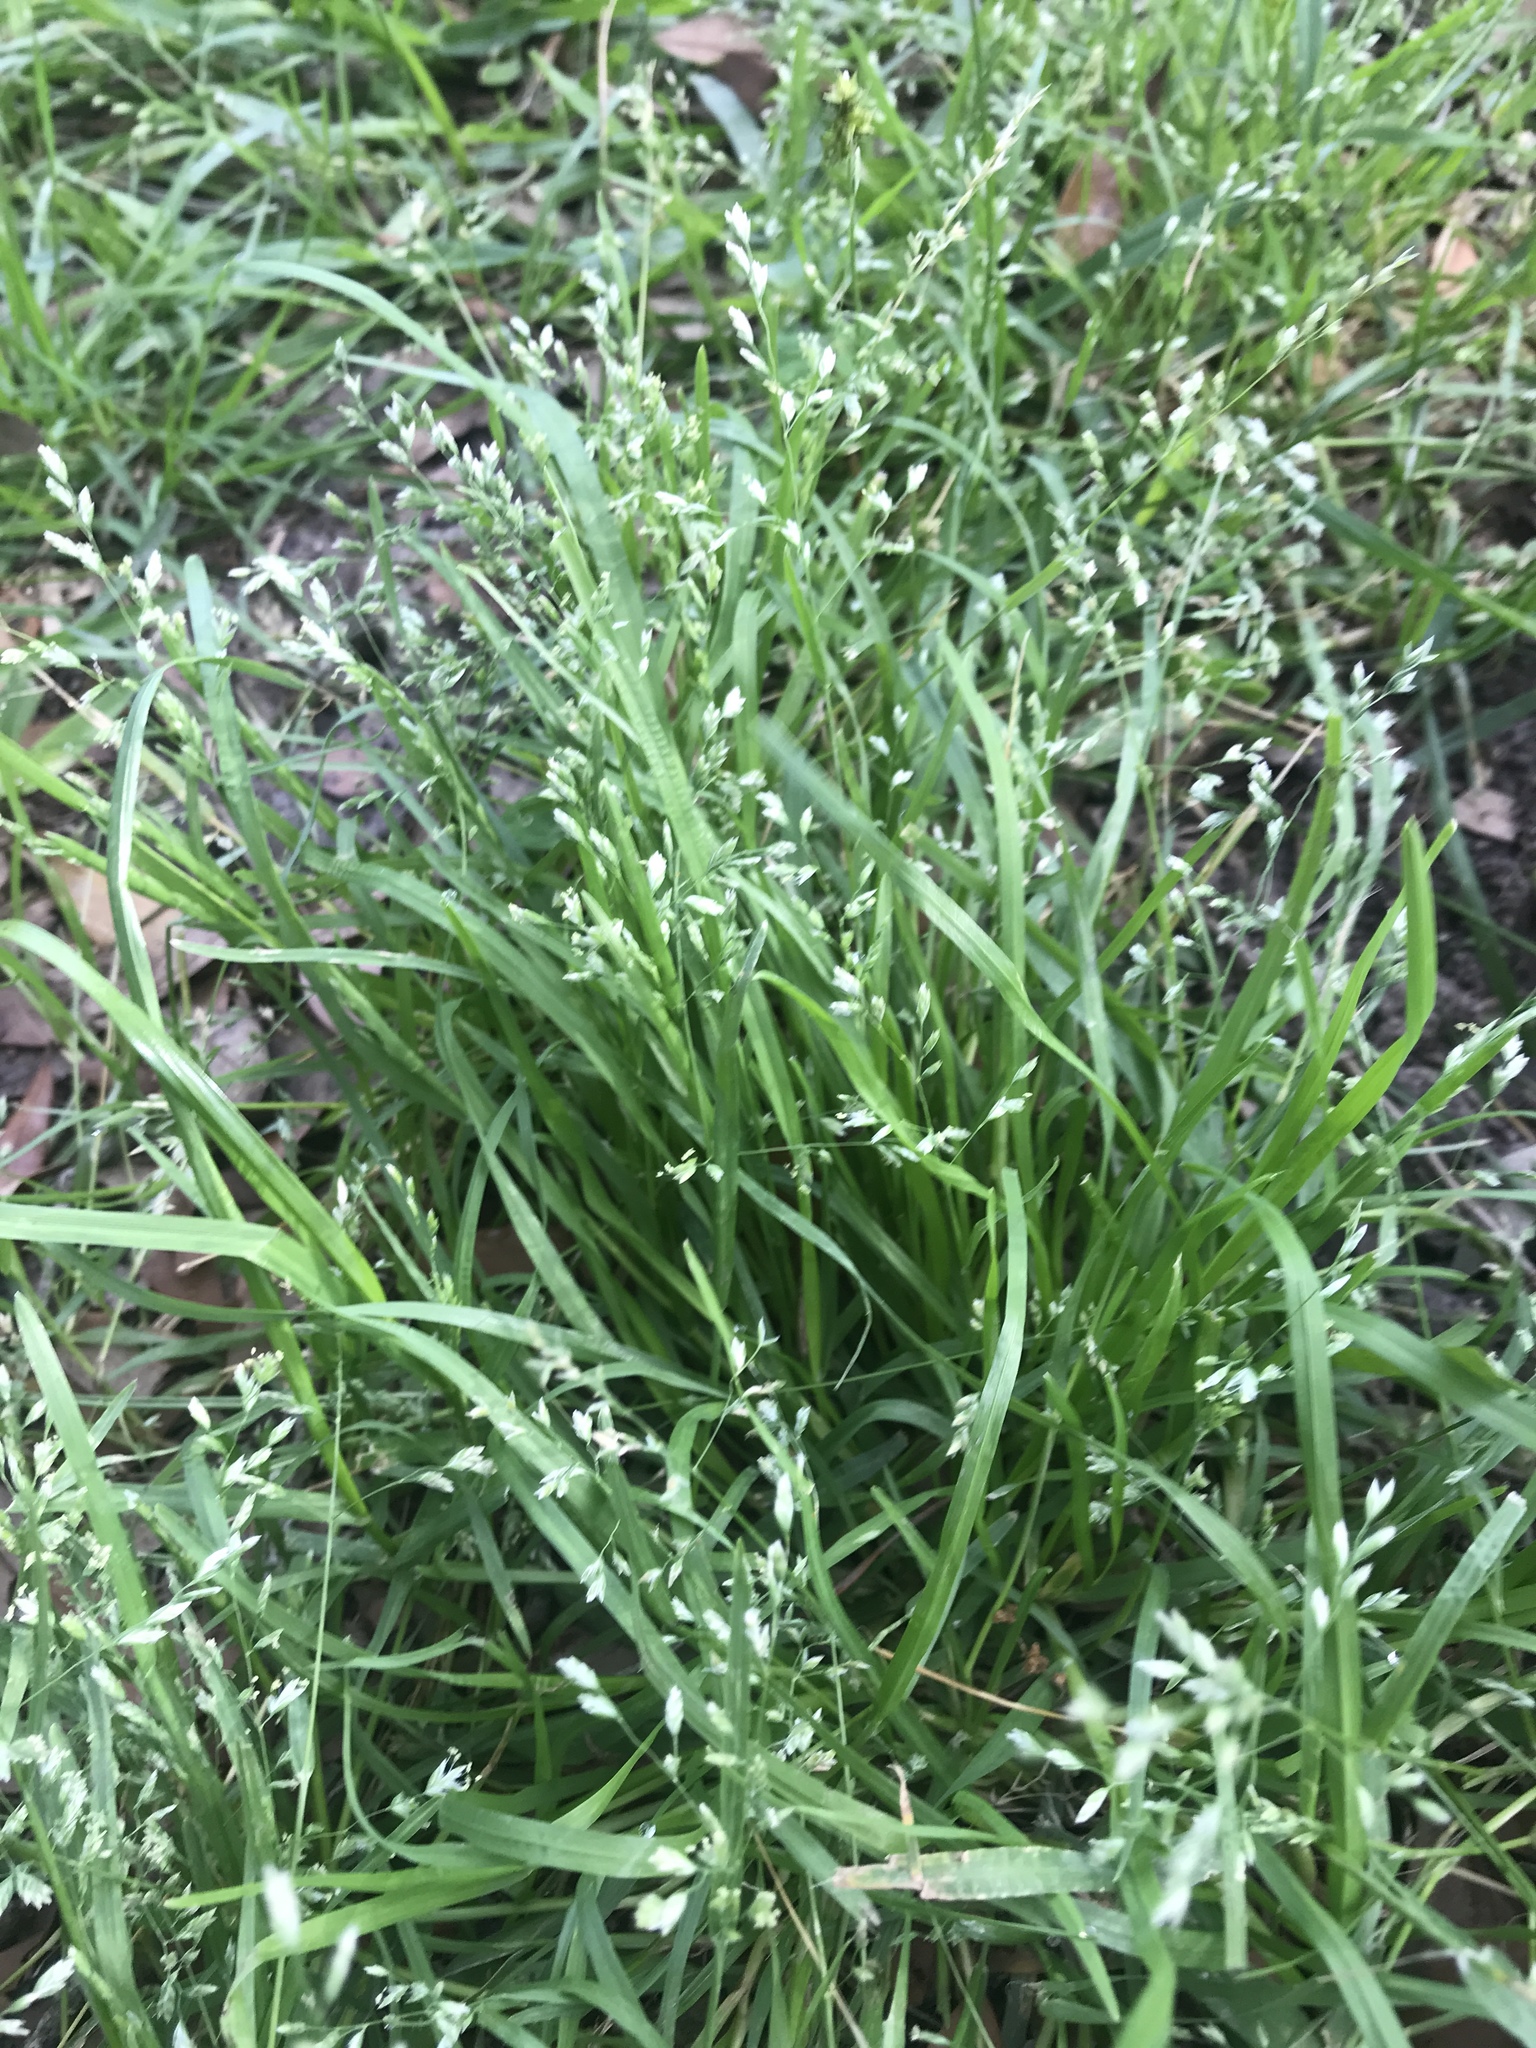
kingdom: Plantae
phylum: Tracheophyta
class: Liliopsida
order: Poales
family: Poaceae
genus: Poa
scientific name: Poa annua
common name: Annual bluegrass
